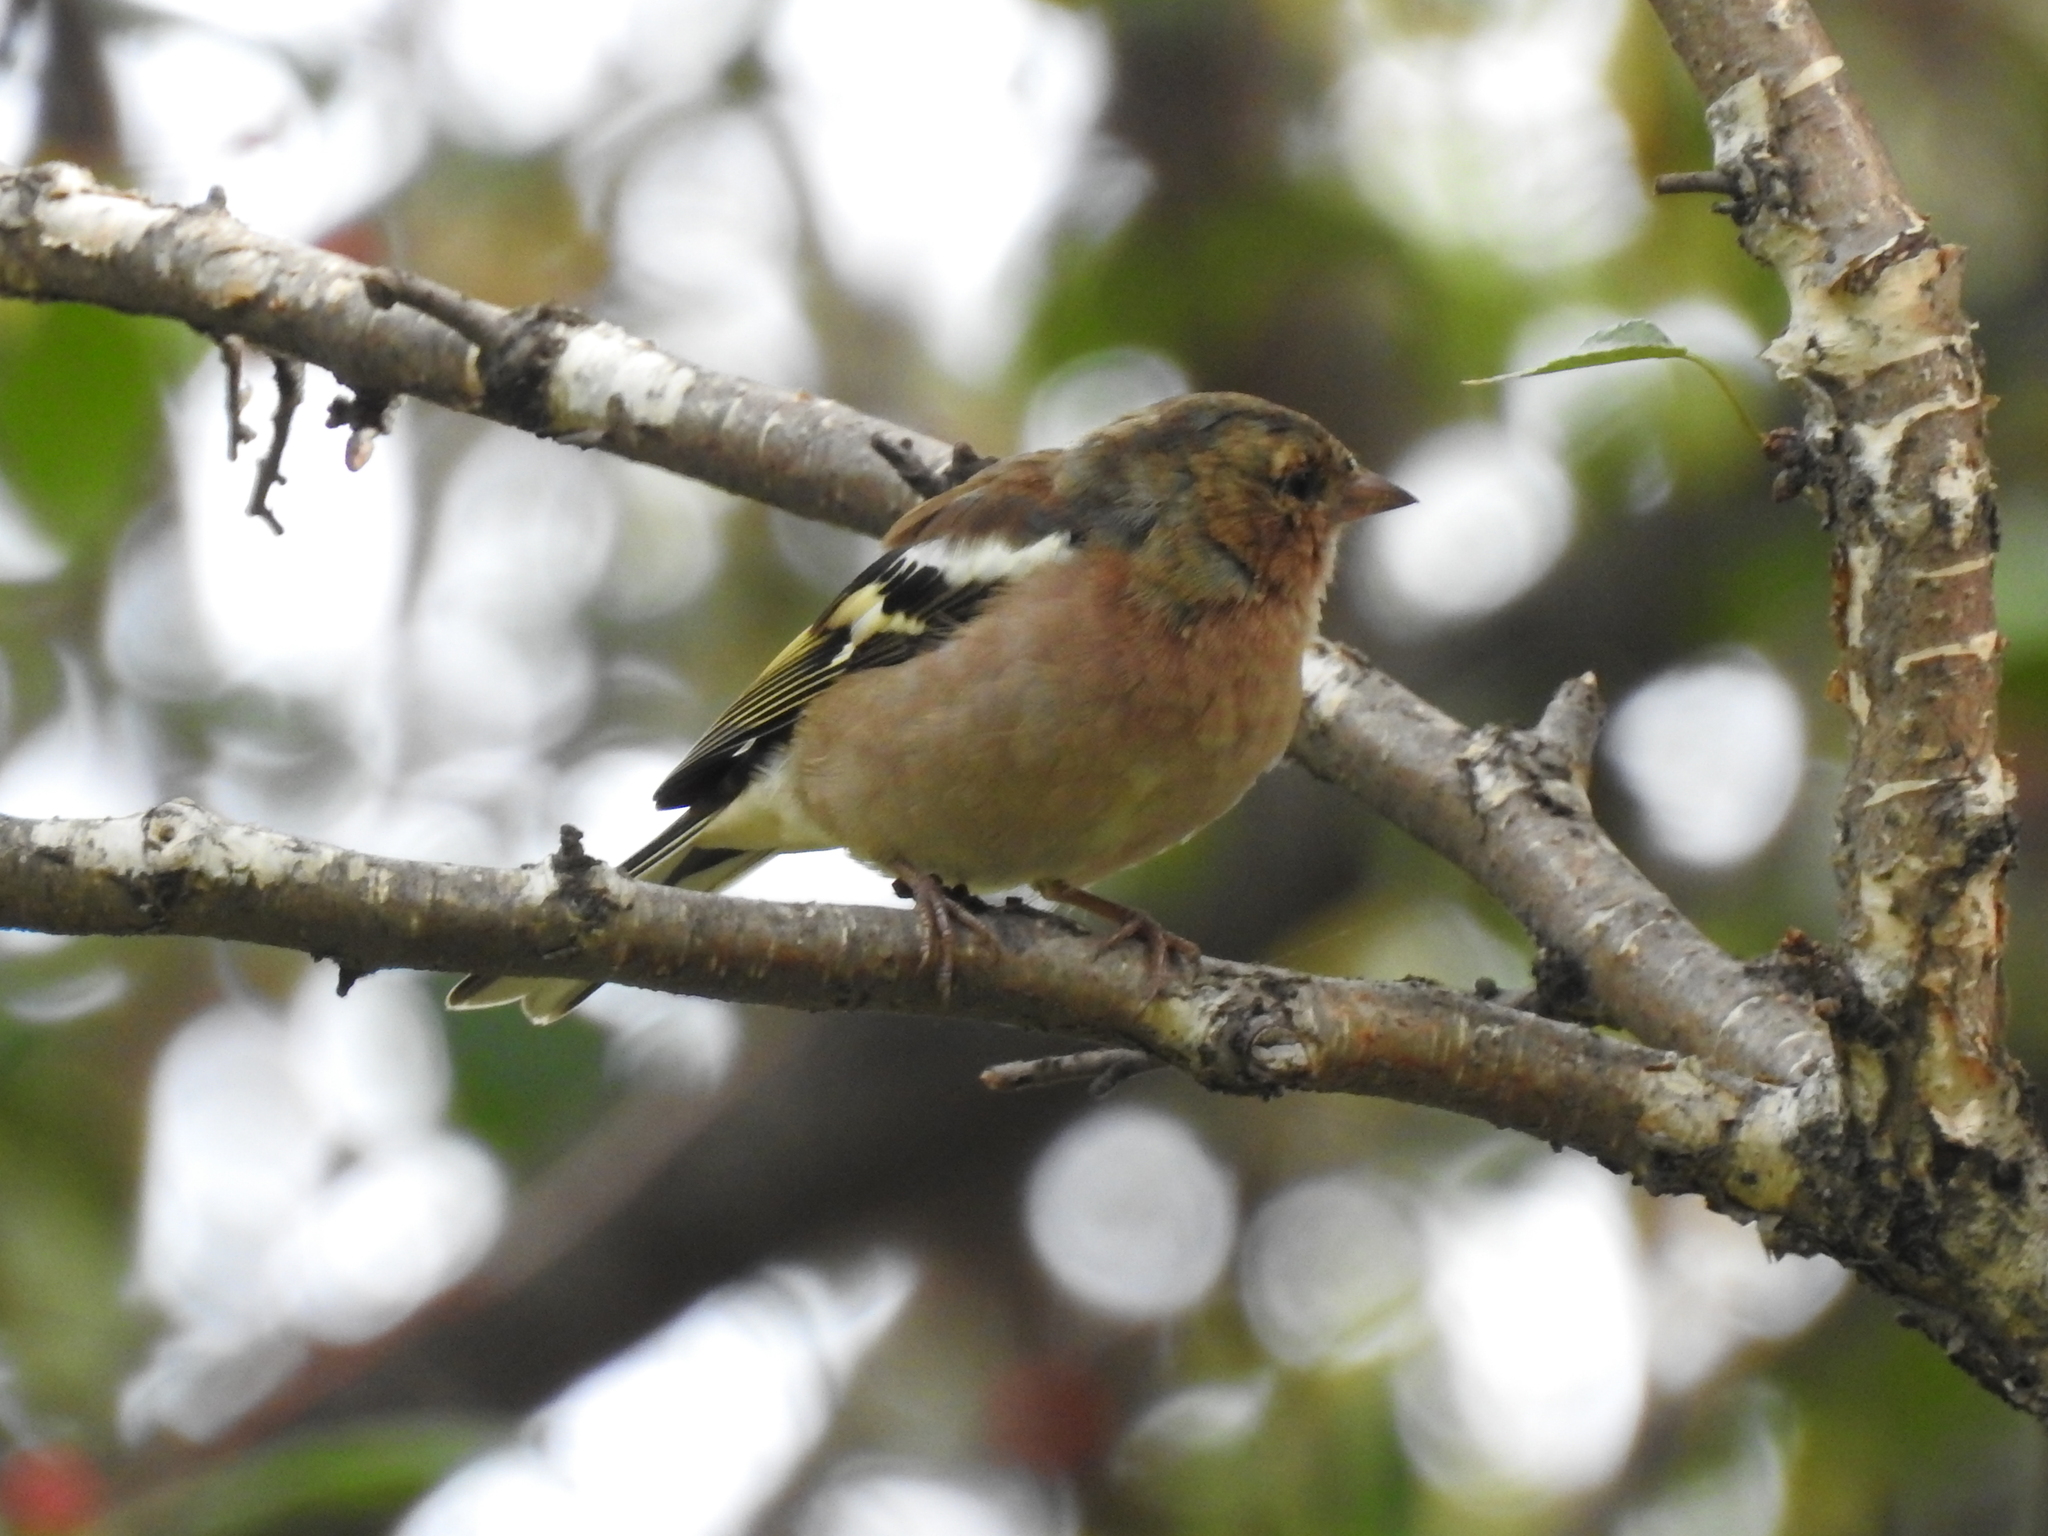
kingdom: Animalia
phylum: Chordata
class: Aves
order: Passeriformes
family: Fringillidae
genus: Fringilla
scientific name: Fringilla coelebs
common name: Common chaffinch
